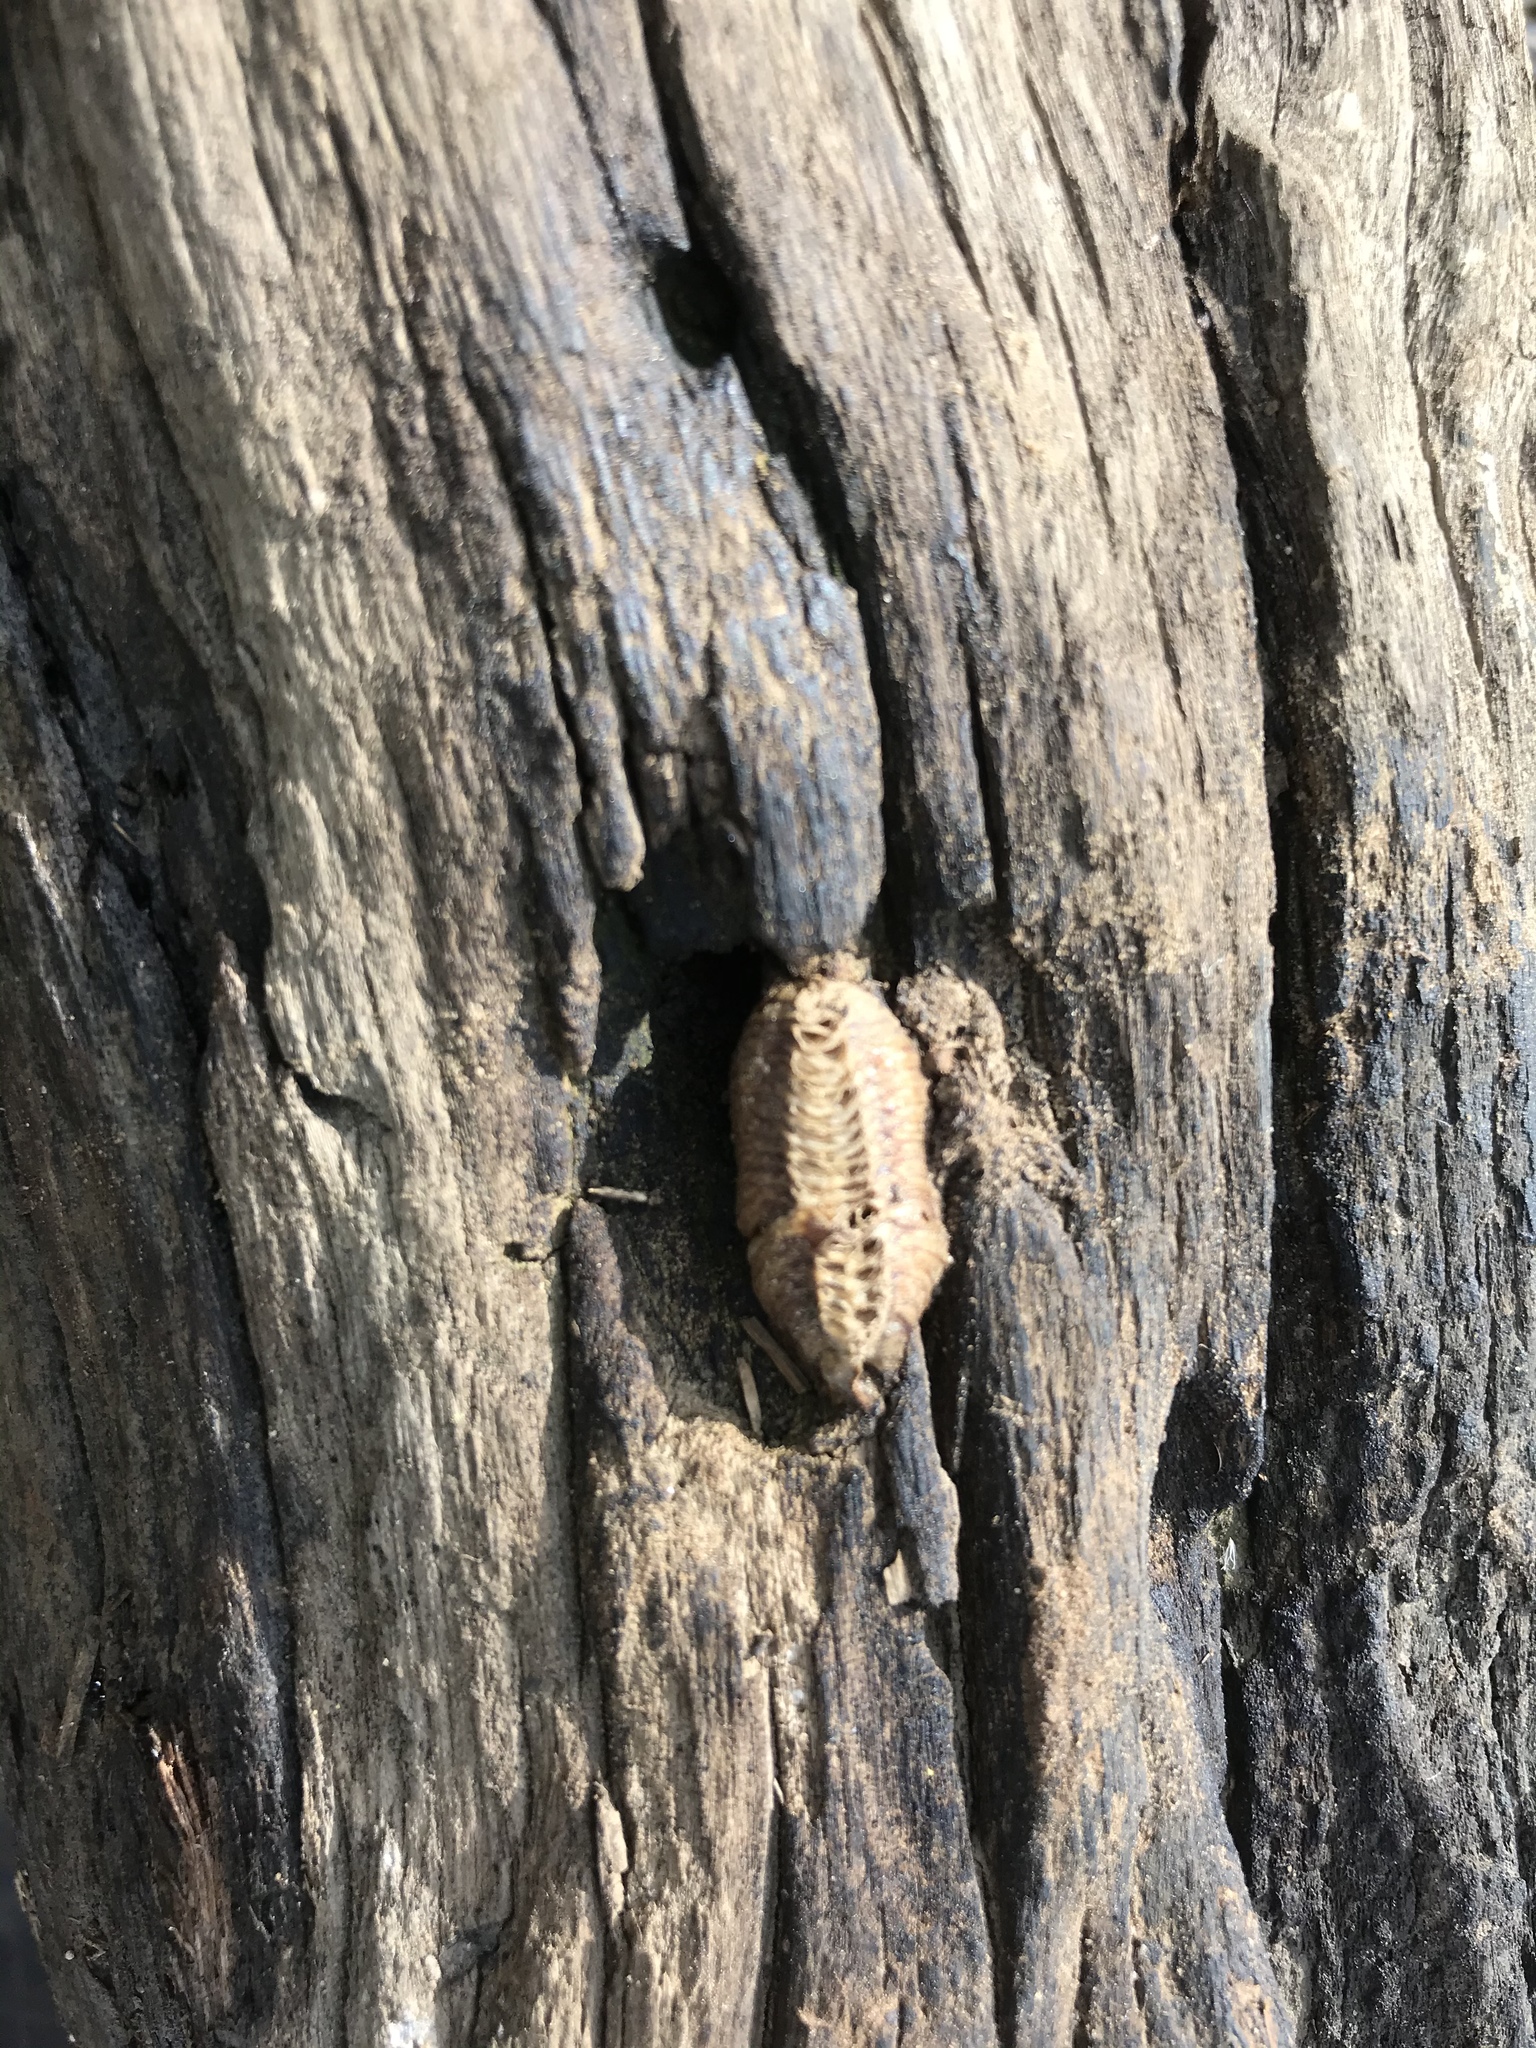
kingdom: Animalia
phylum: Arthropoda
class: Insecta
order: Mantodea
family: Mantidae
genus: Stagmomantis
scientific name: Stagmomantis carolina
